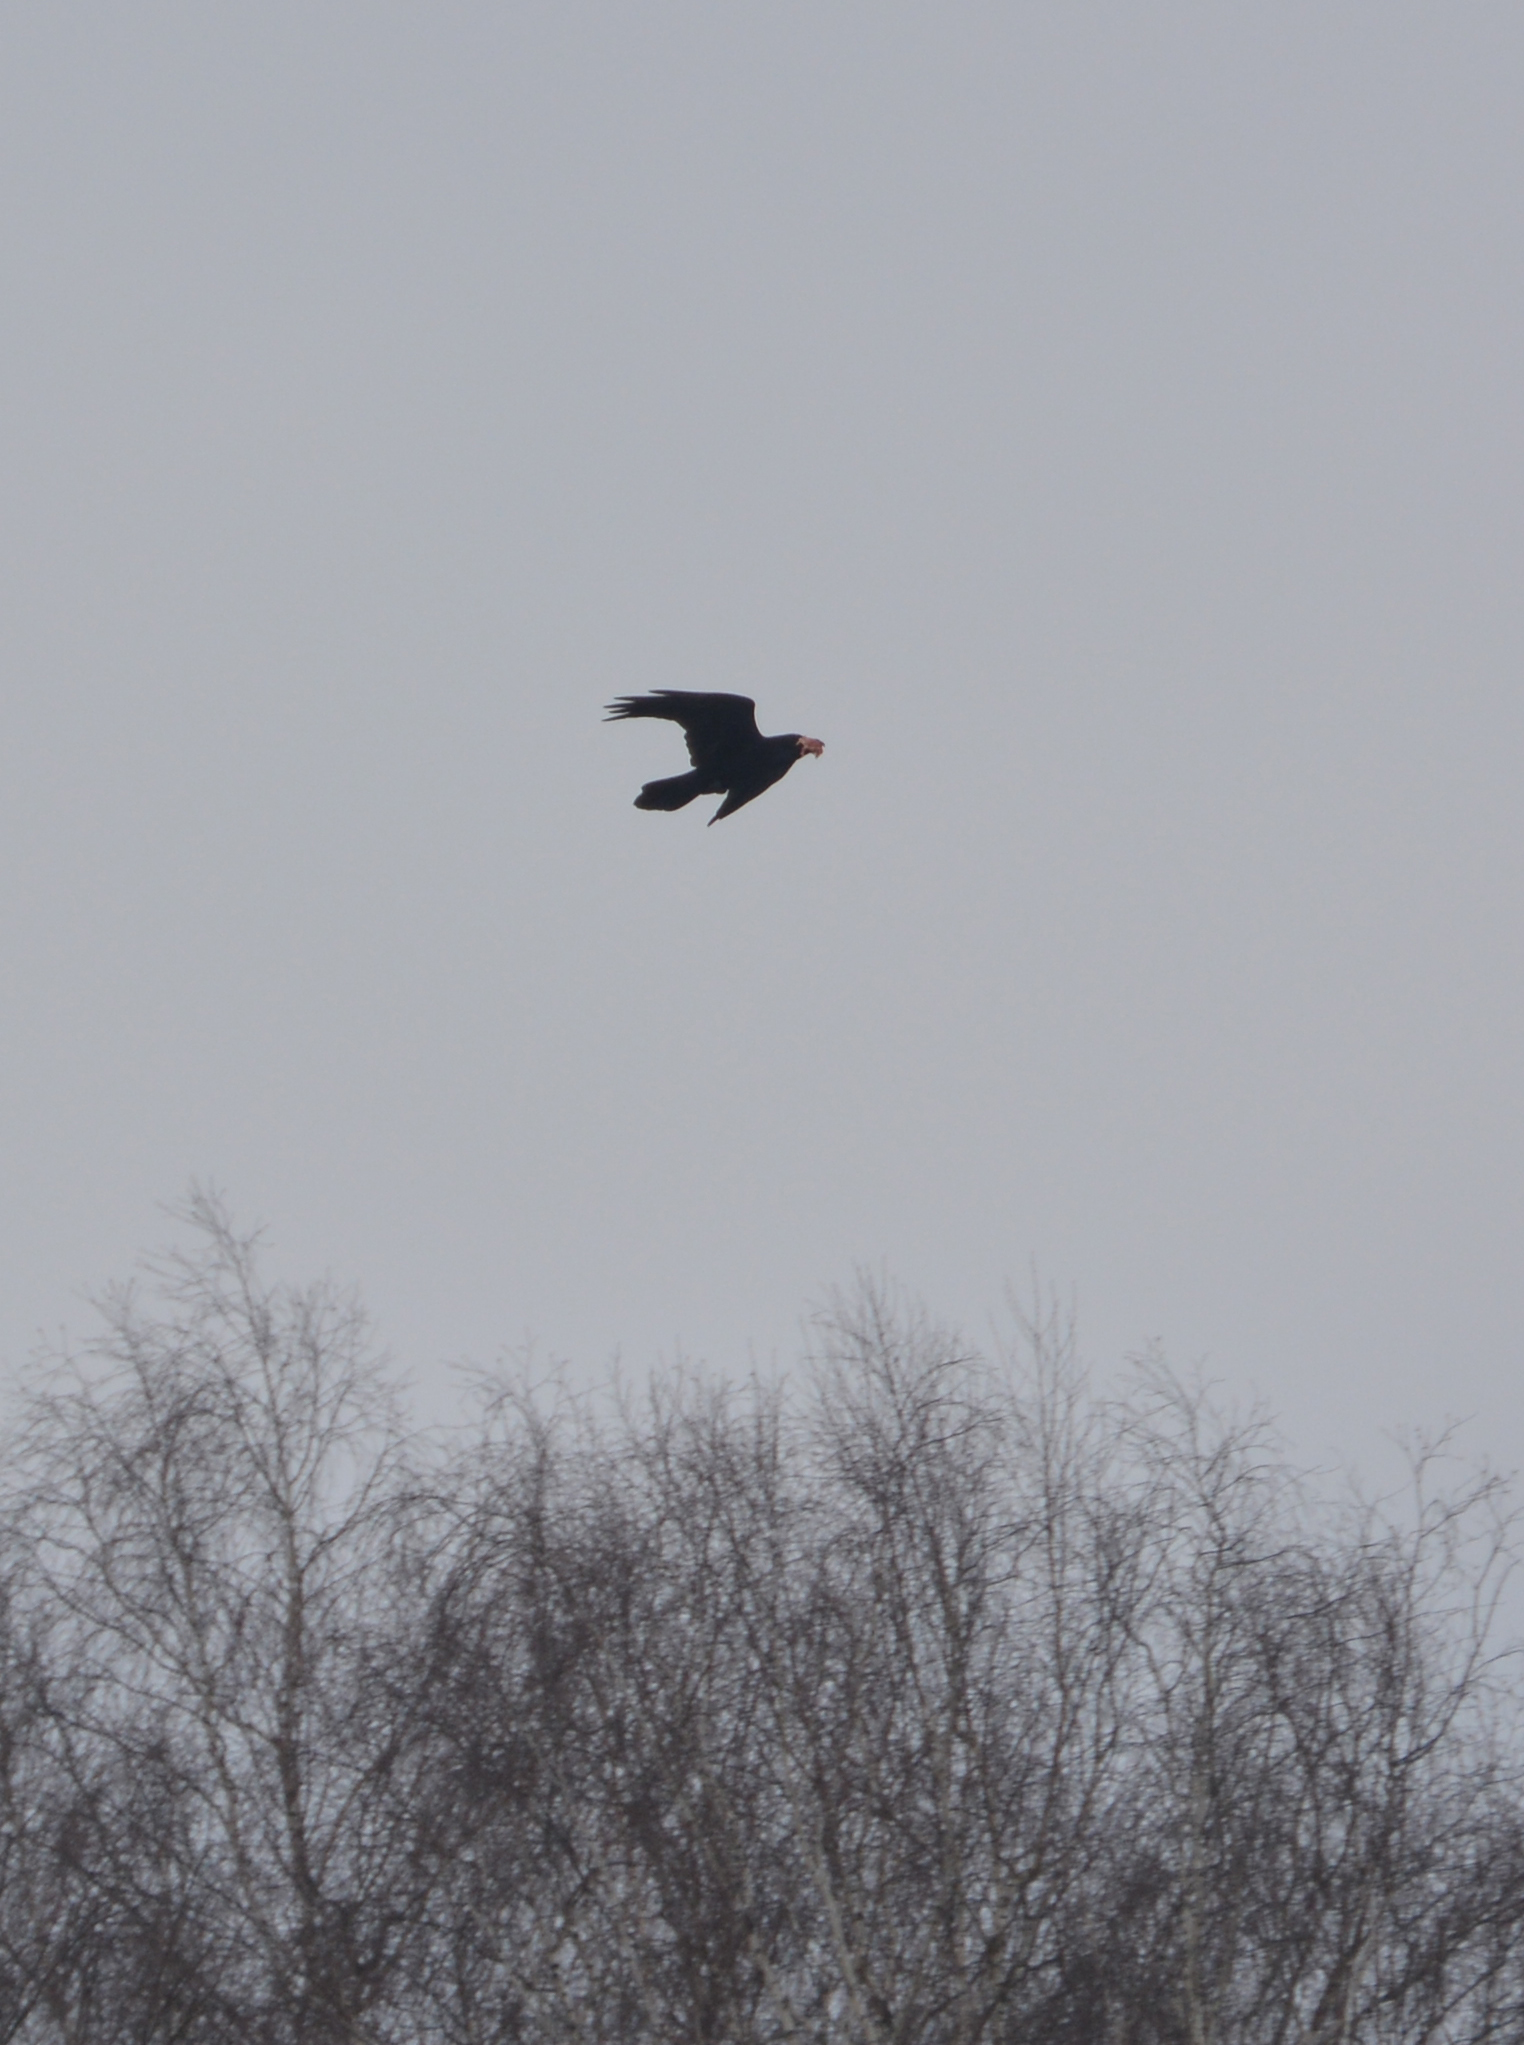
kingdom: Animalia
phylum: Chordata
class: Aves
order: Passeriformes
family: Corvidae
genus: Corvus
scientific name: Corvus corax
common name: Common raven
